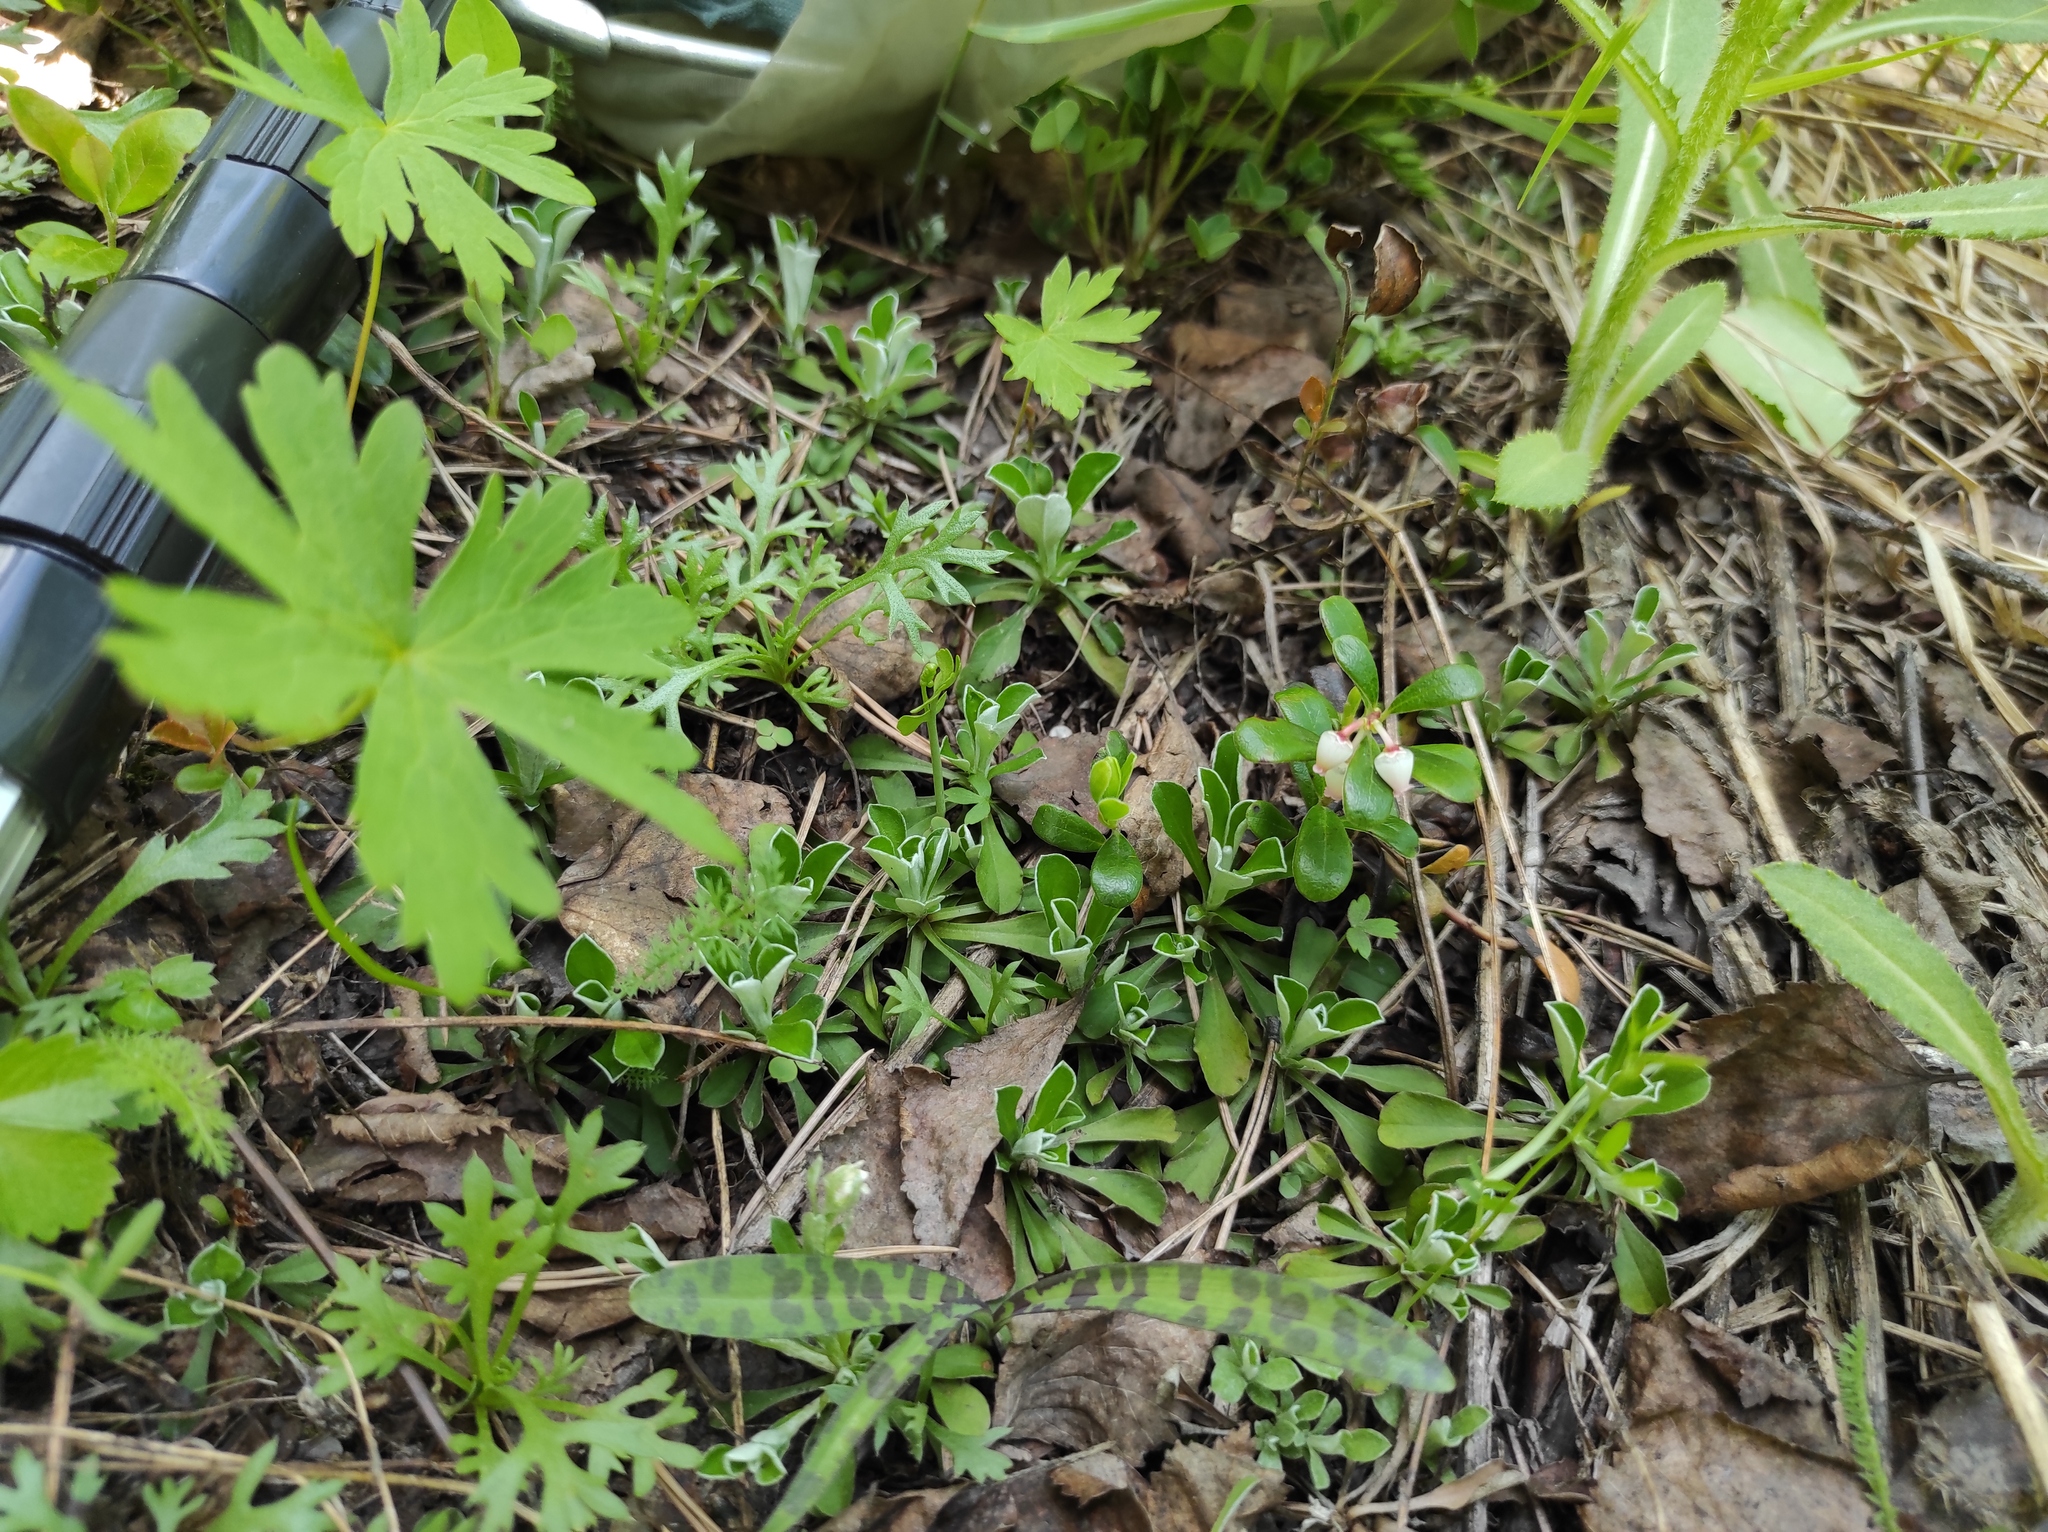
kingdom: Plantae
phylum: Tracheophyta
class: Magnoliopsida
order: Asterales
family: Asteraceae
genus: Chrysanthemum
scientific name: Chrysanthemum zawadzkii
